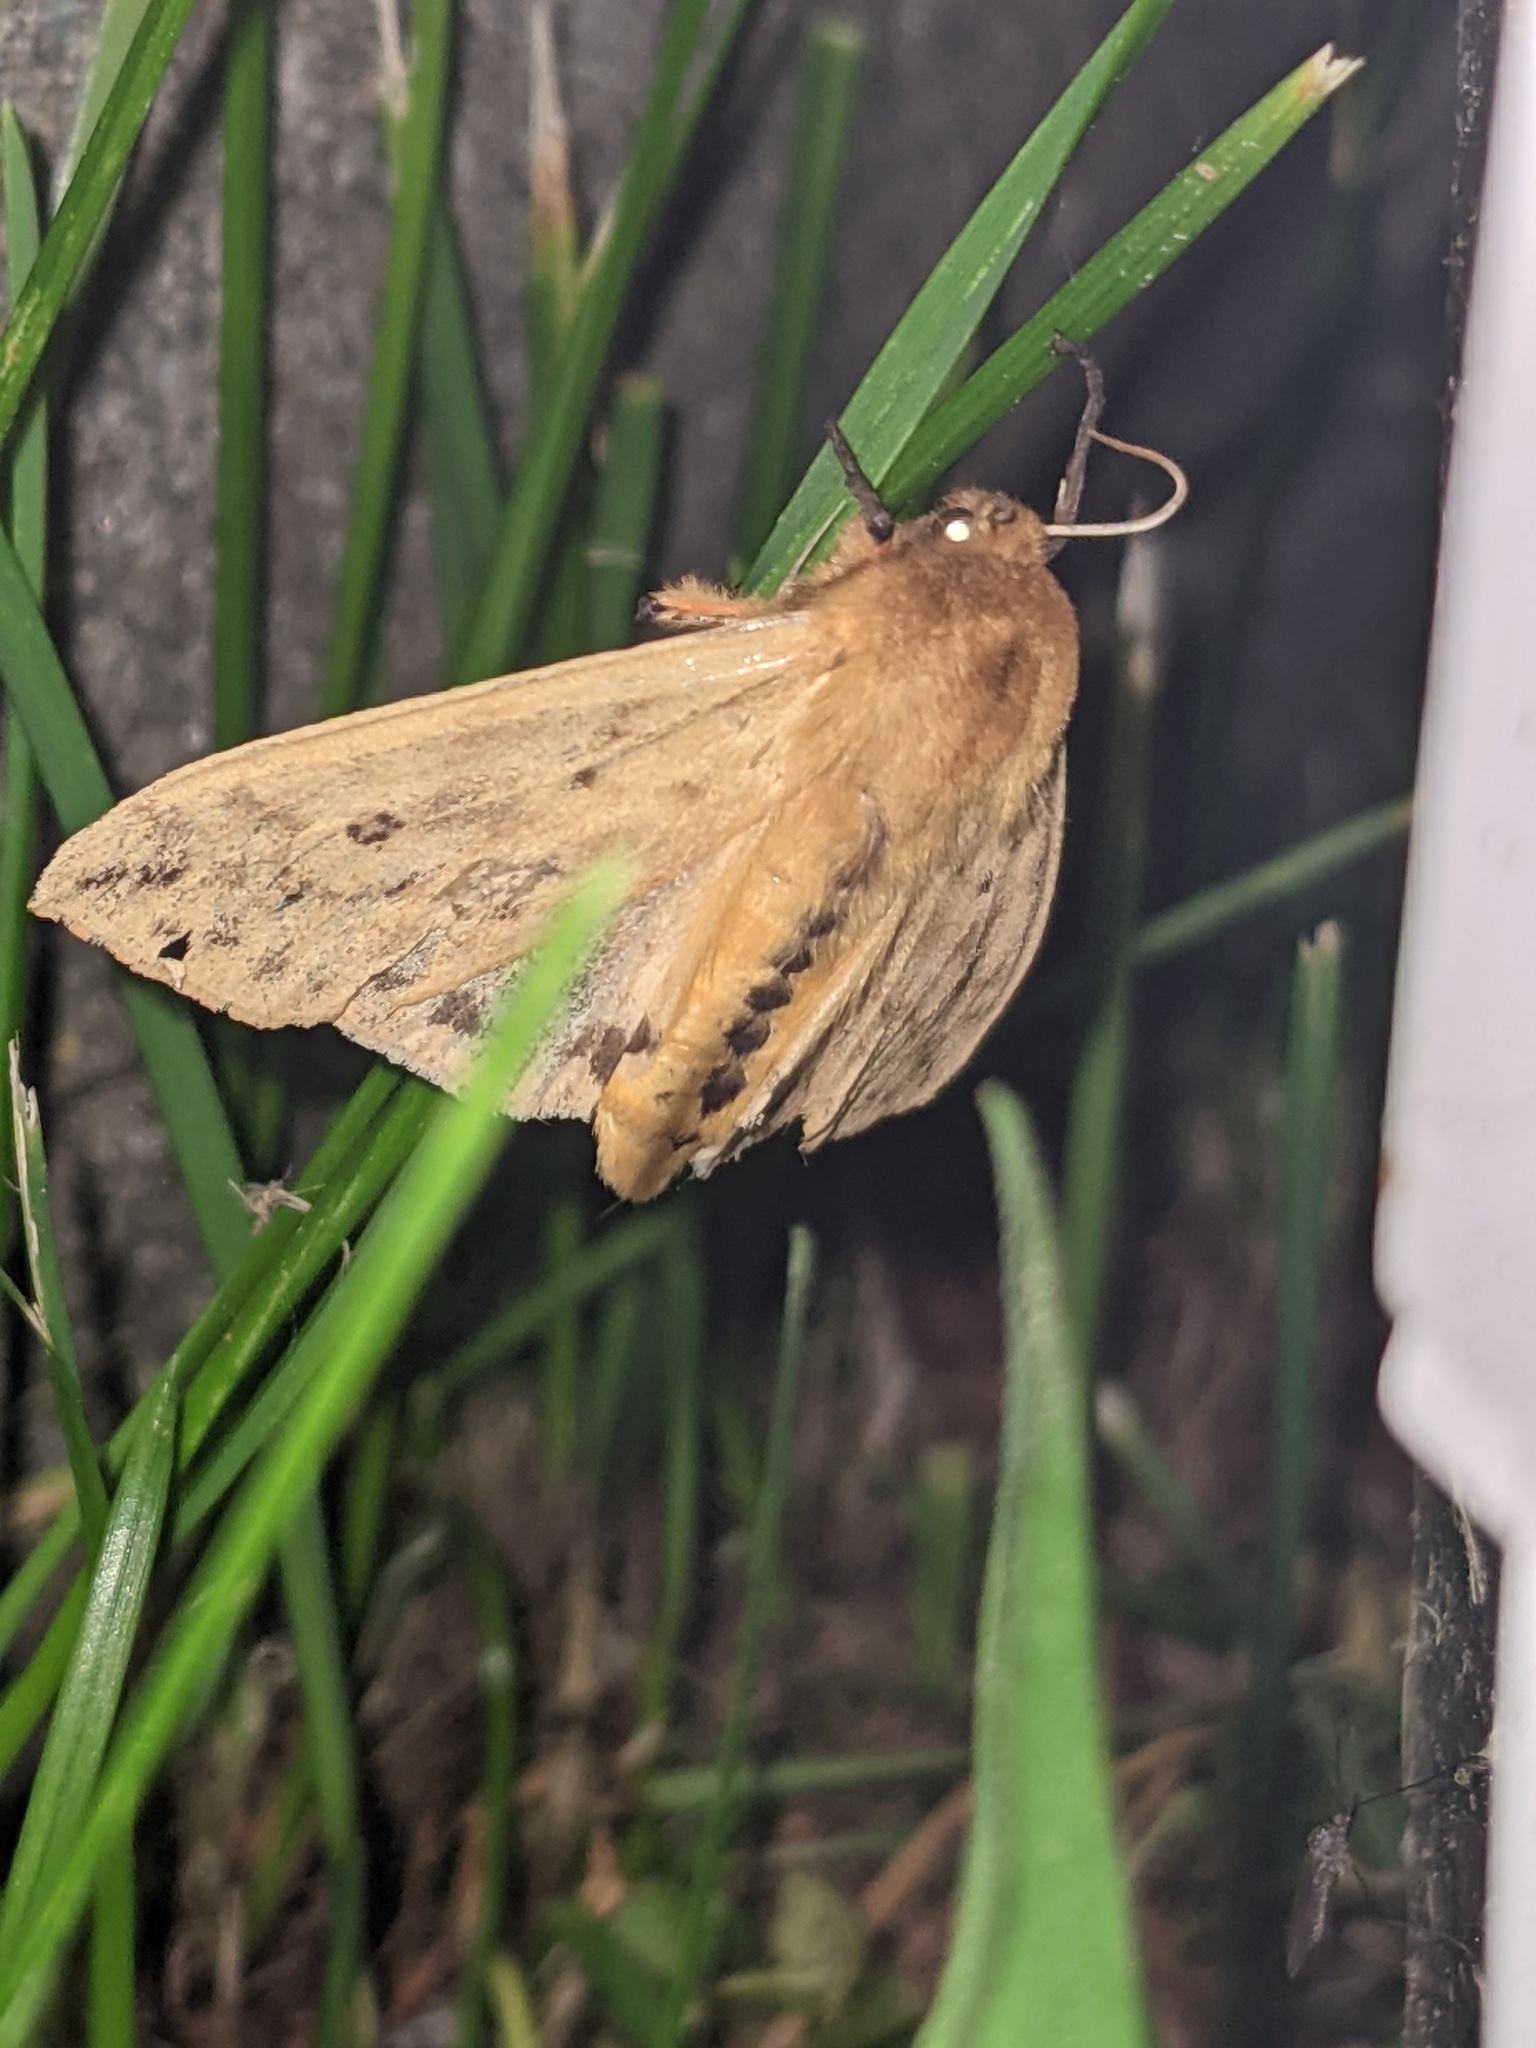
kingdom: Animalia
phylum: Arthropoda
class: Insecta
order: Lepidoptera
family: Erebidae
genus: Pyrrharctia
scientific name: Pyrrharctia isabella
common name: Isabella tiger moth
